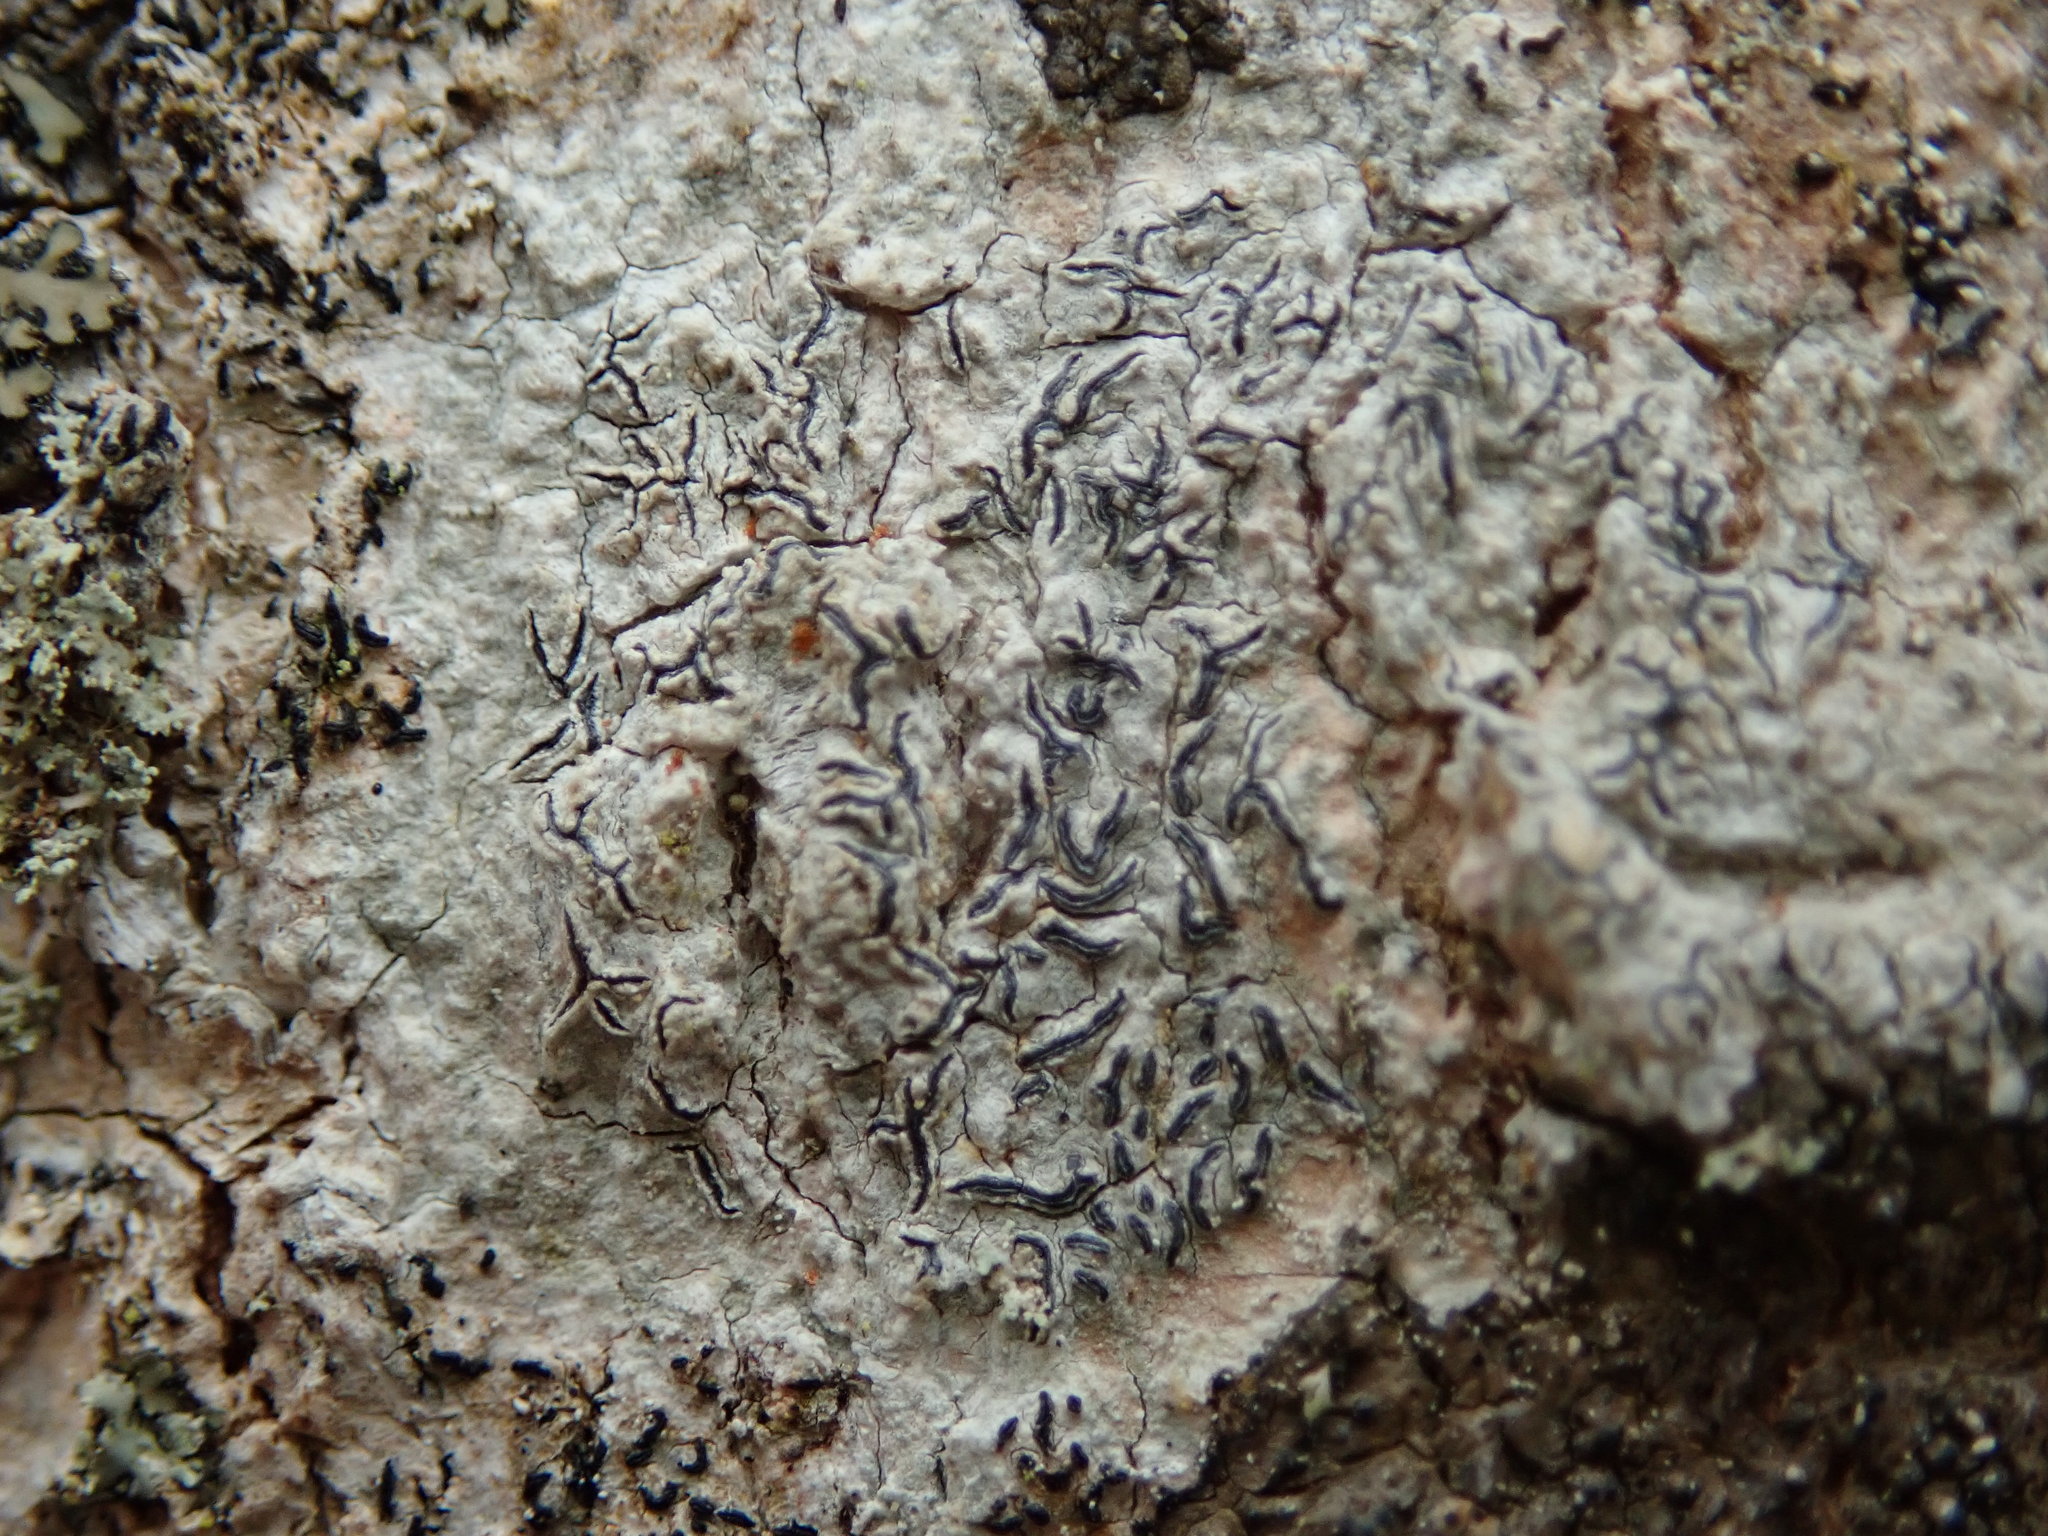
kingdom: Fungi
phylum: Ascomycota
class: Lecanoromycetes
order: Ostropales
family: Graphidaceae
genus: Graphis
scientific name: Graphis scripta
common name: Script lichen
